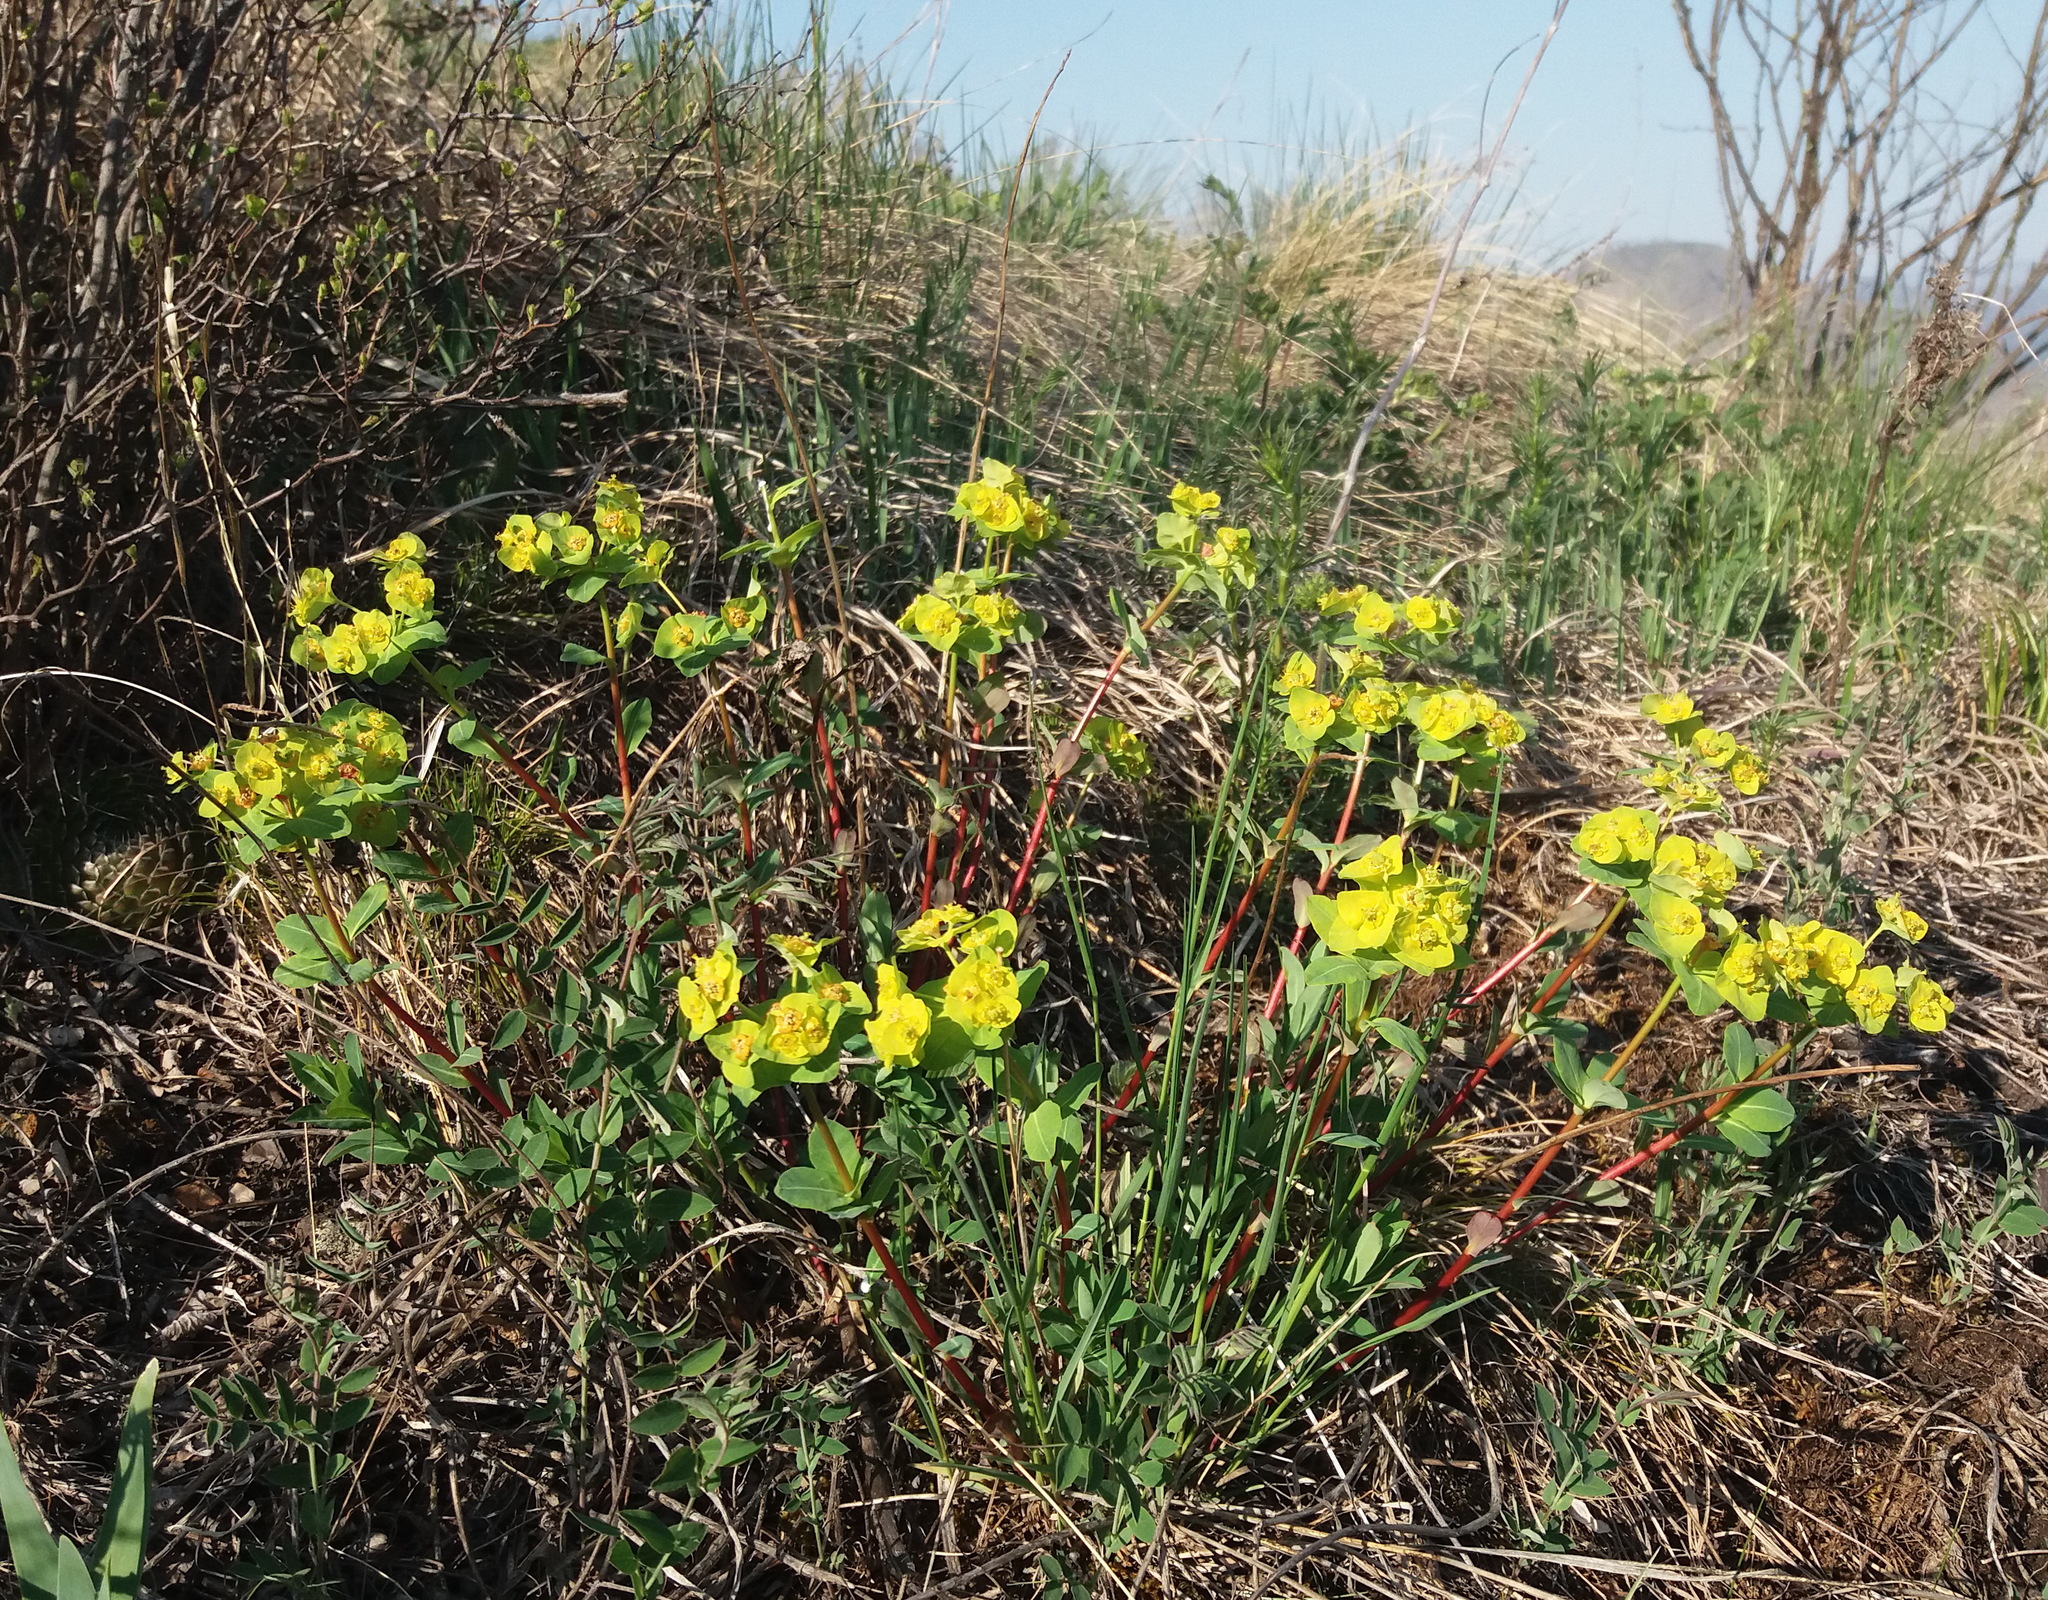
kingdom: Plantae
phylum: Tracheophyta
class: Magnoliopsida
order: Malpighiales
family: Euphorbiaceae
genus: Euphorbia
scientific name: Euphorbia altaica
